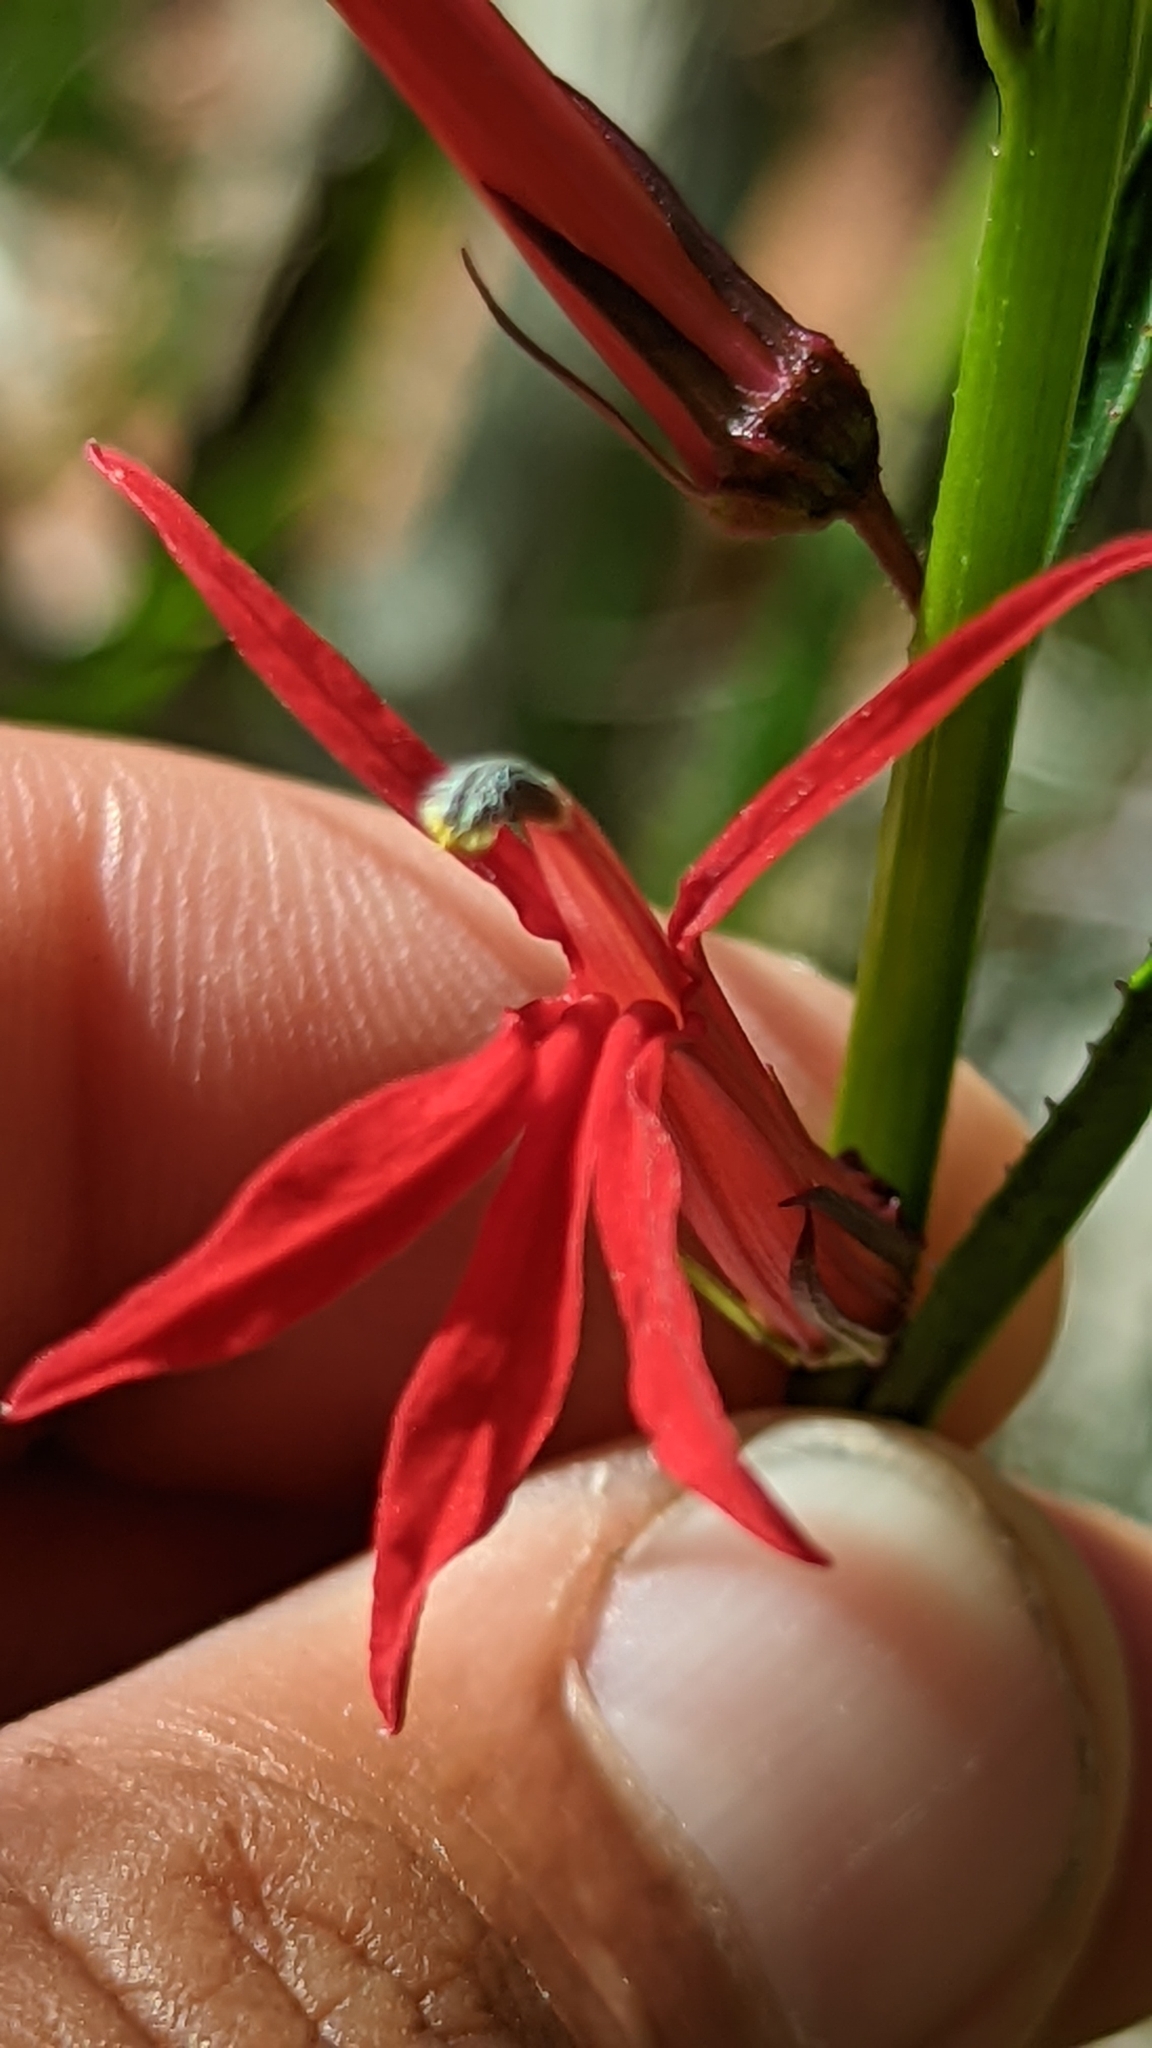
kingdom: Plantae
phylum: Tracheophyta
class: Magnoliopsida
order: Asterales
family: Campanulaceae
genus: Lobelia
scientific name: Lobelia cardinalis
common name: Cardinal flower
